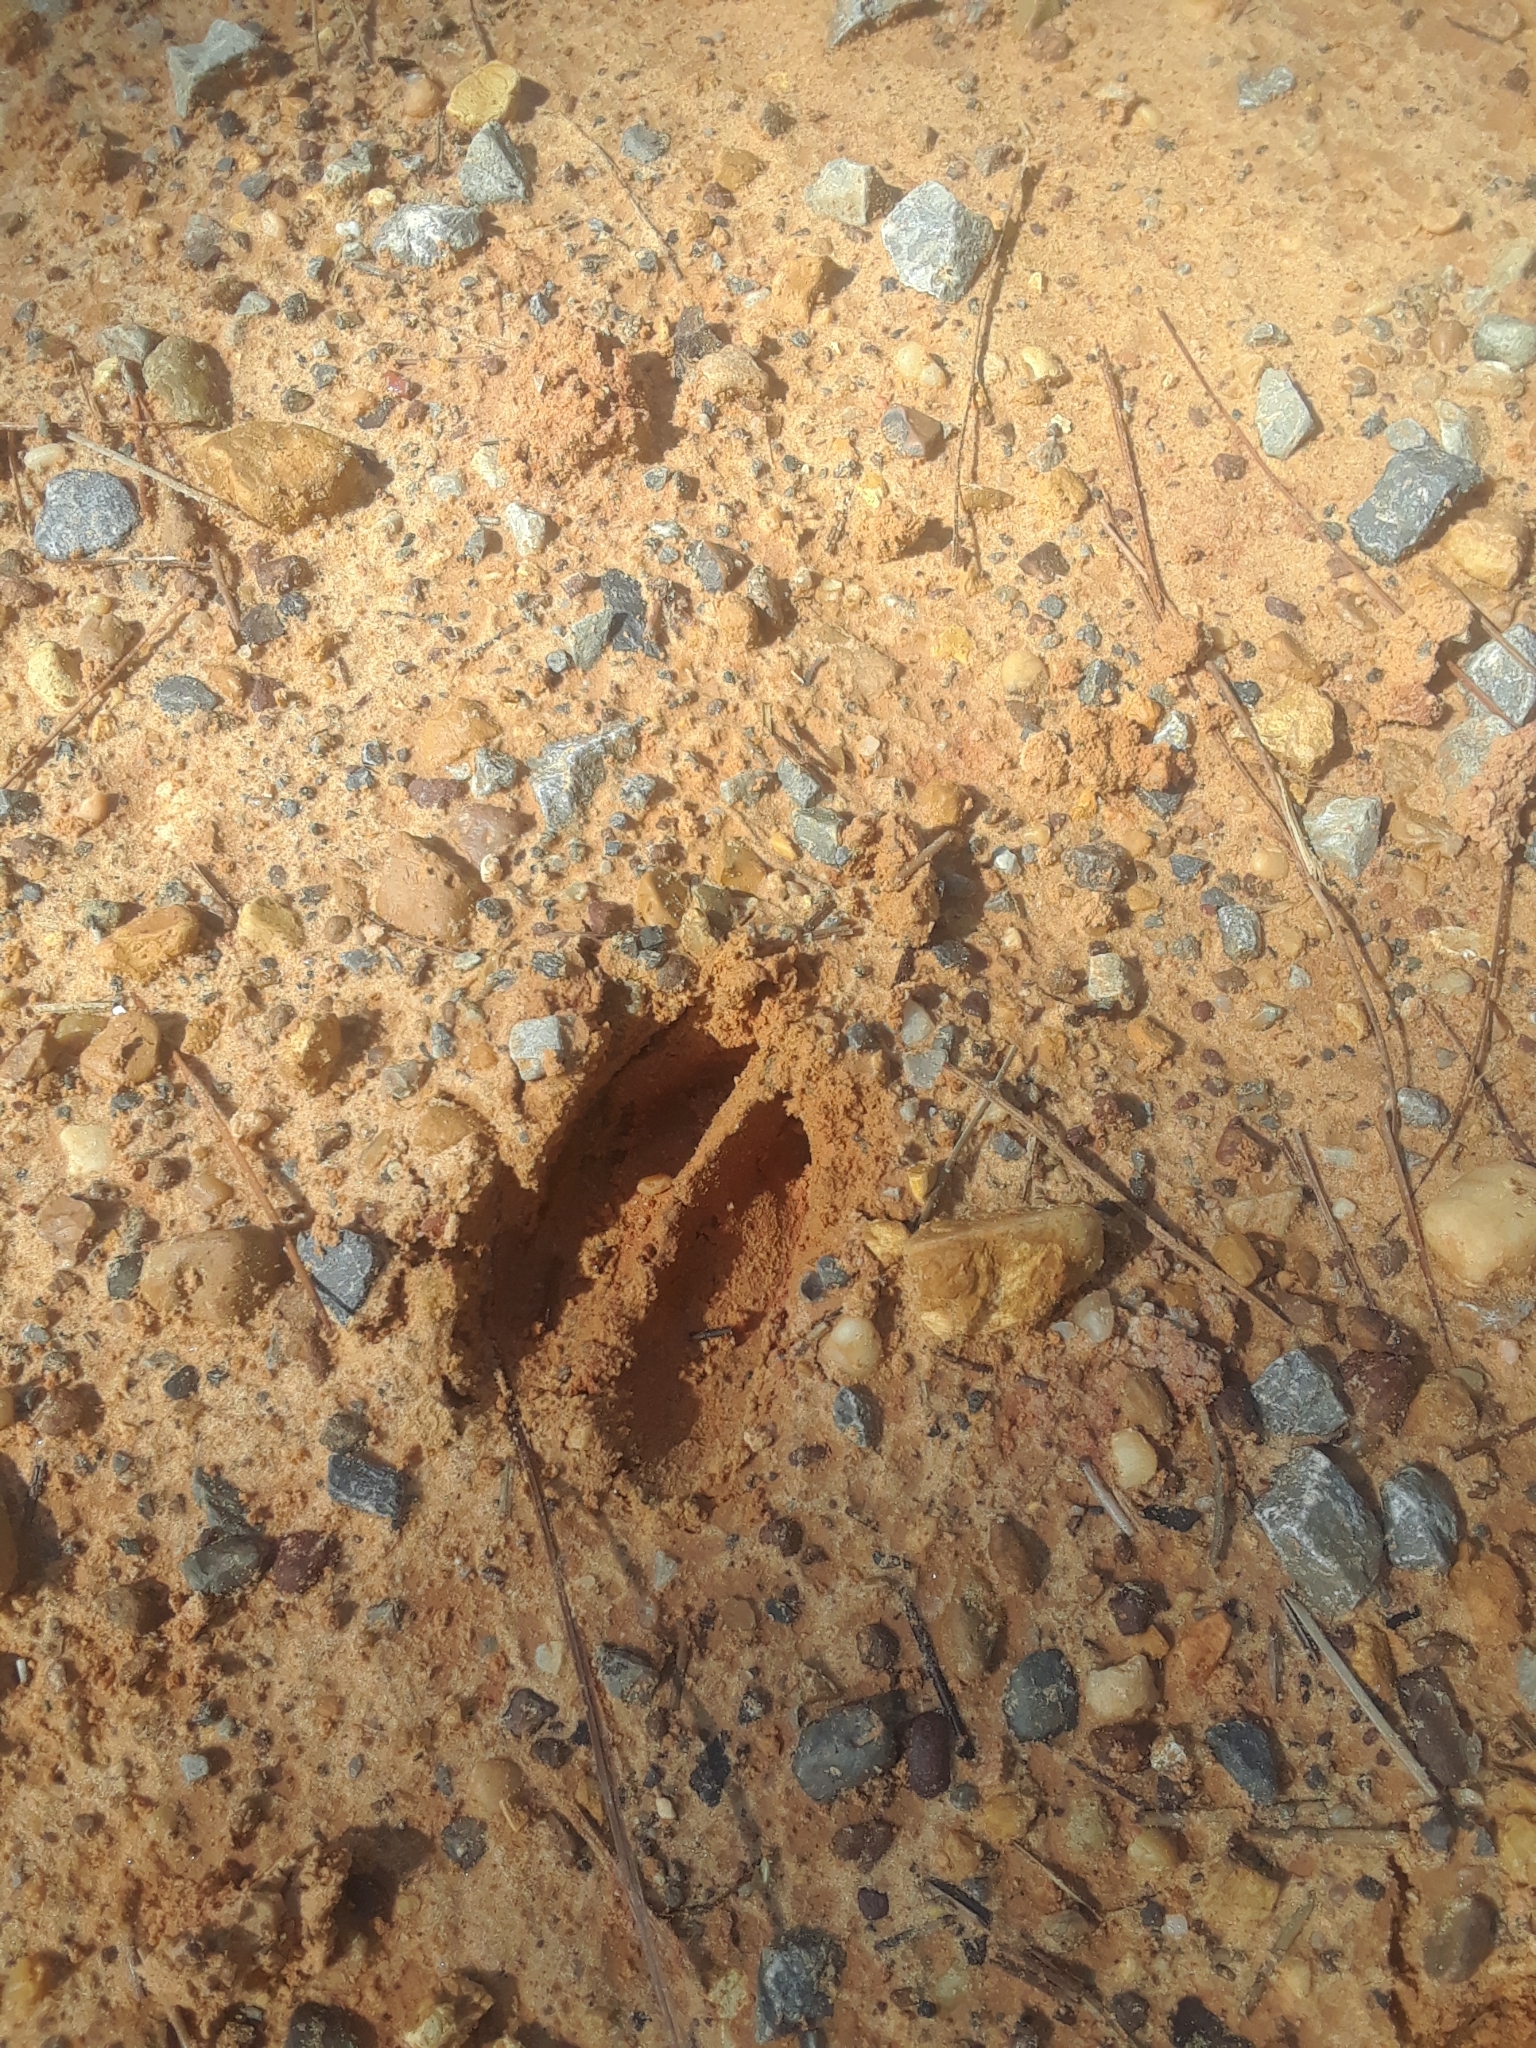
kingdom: Animalia
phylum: Chordata
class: Mammalia
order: Artiodactyla
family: Cervidae
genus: Odocoileus
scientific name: Odocoileus virginianus
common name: White-tailed deer
